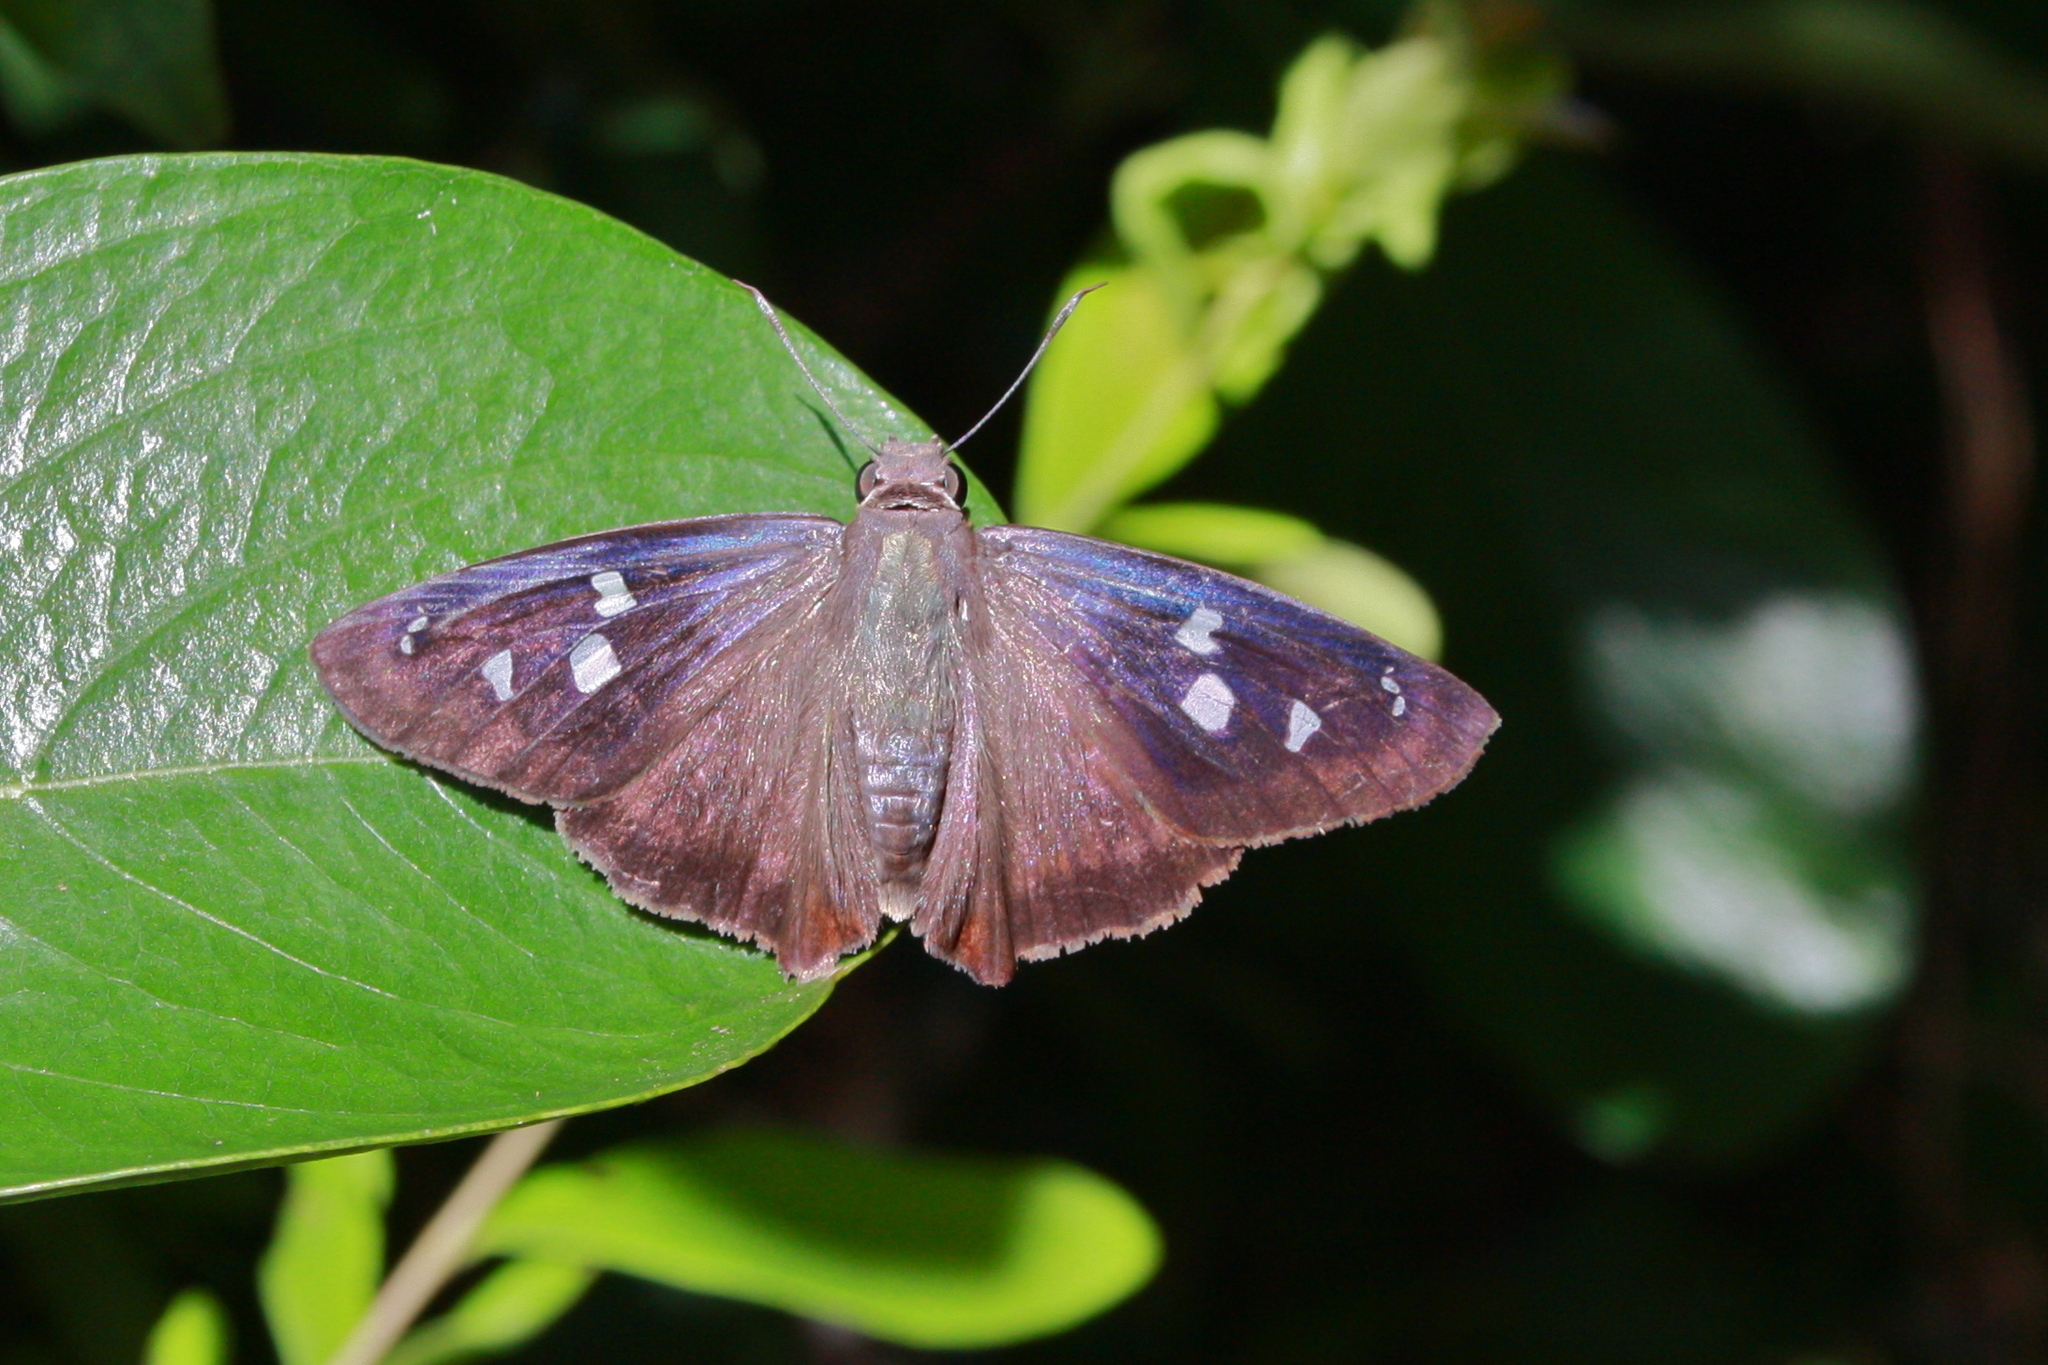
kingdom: Animalia
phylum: Arthropoda
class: Insecta
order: Lepidoptera
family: Hesperiidae
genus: Polygonus
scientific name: Polygonus leo
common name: Hammoch skipper
